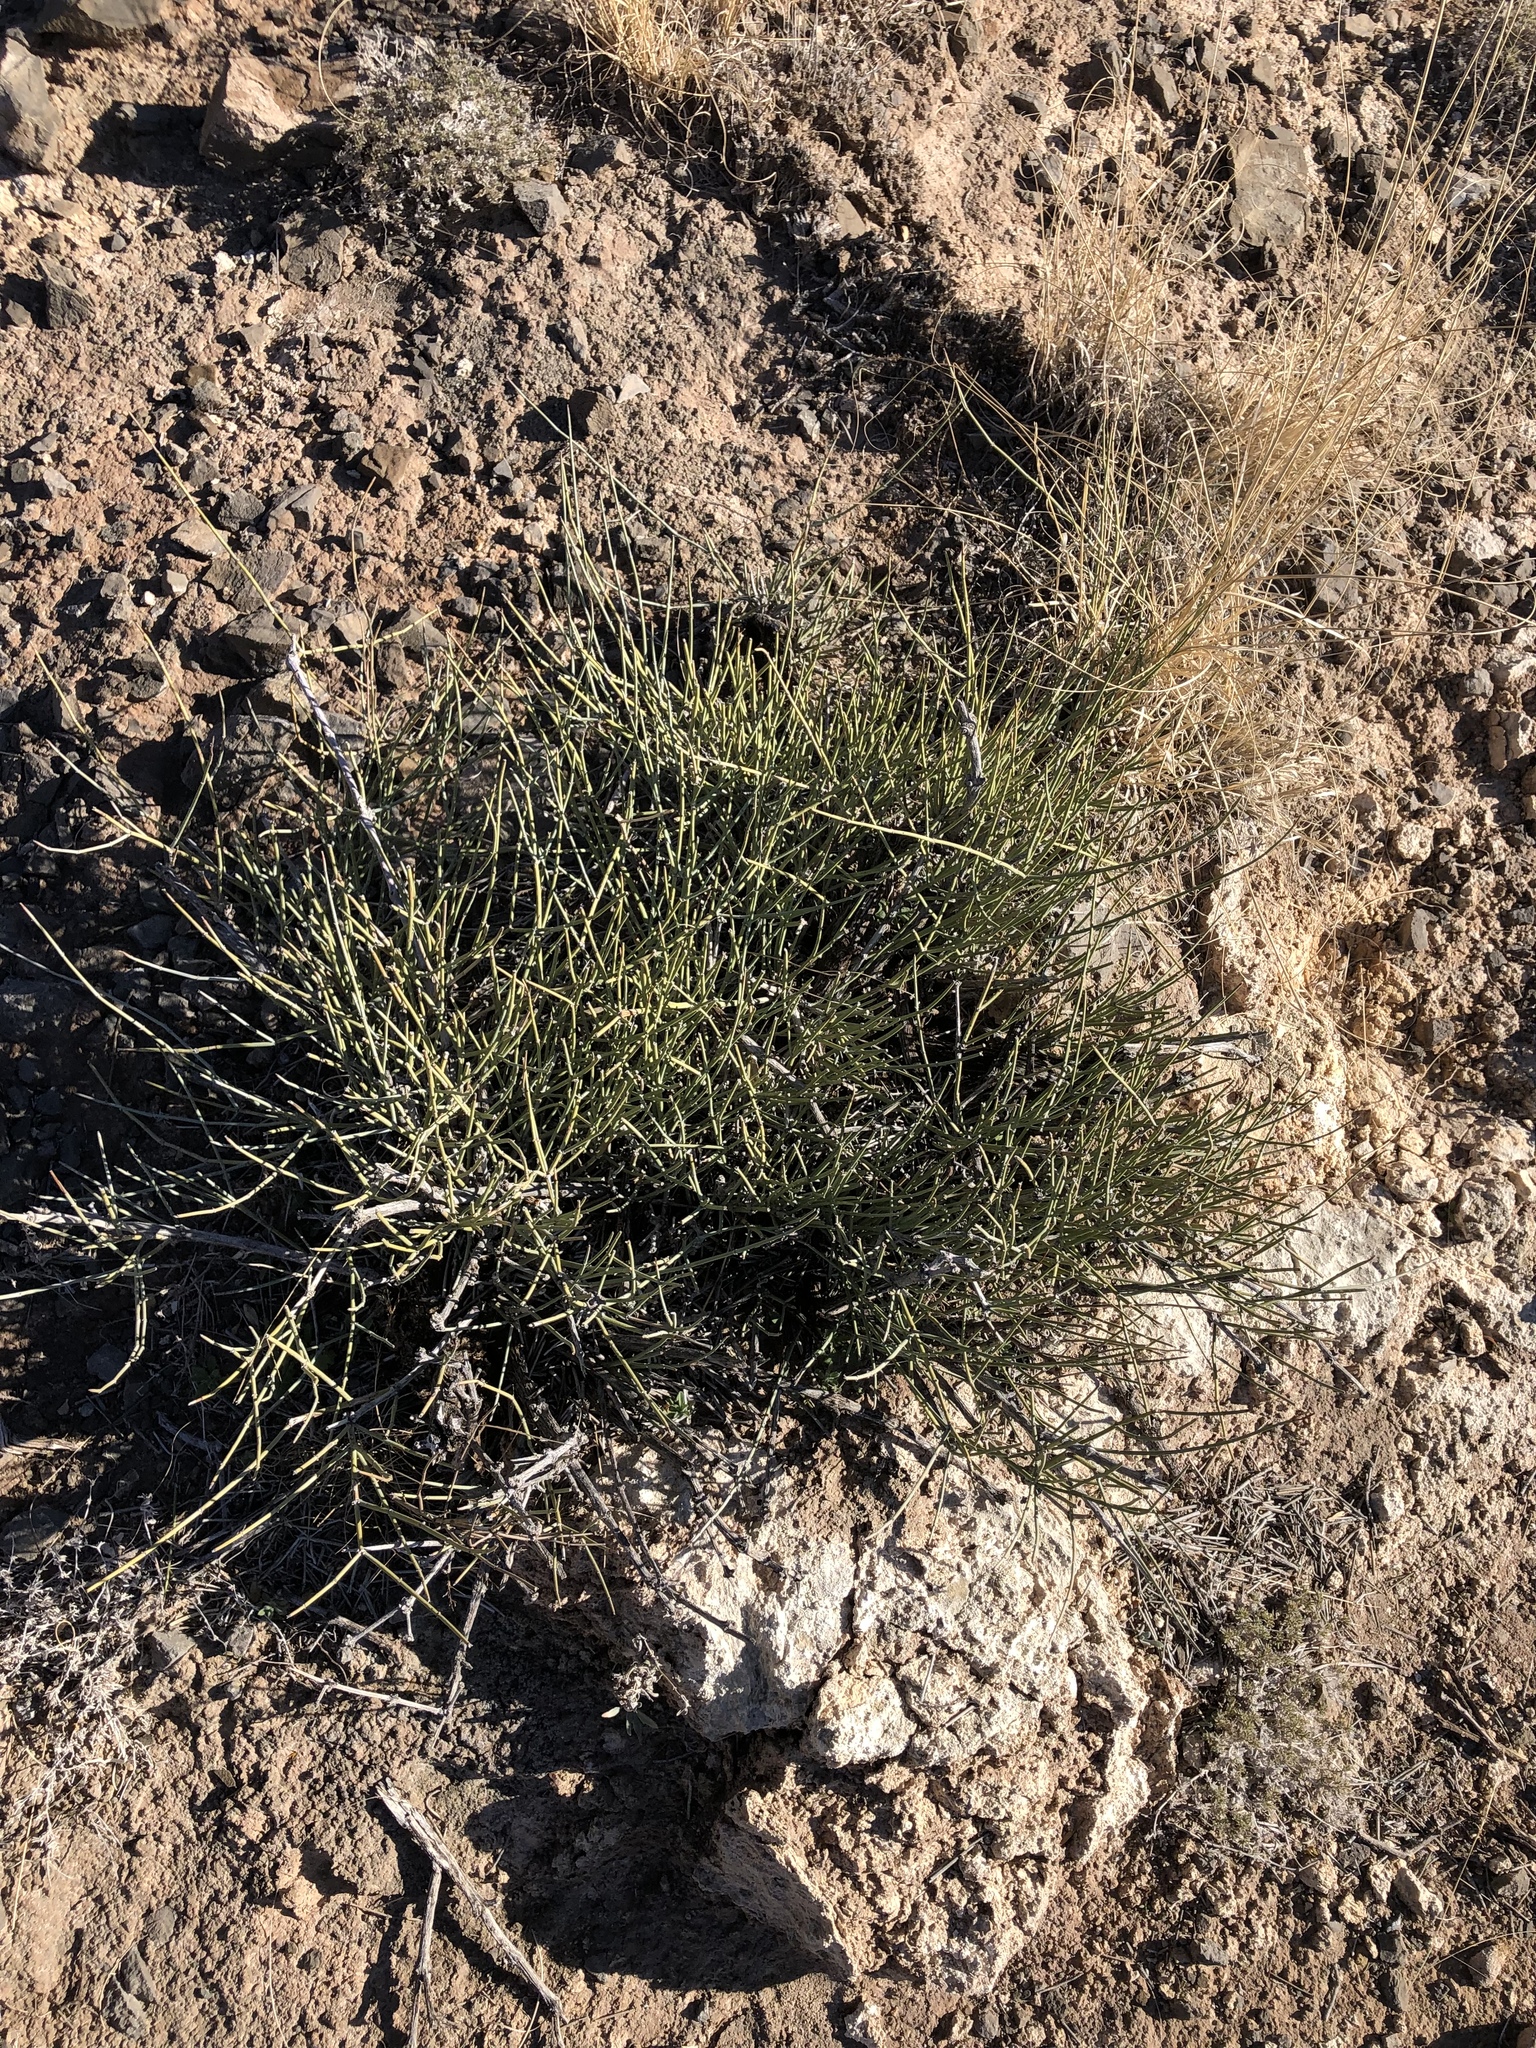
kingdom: Plantae
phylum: Tracheophyta
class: Gnetopsida
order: Ephedrales
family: Ephedraceae
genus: Ephedra
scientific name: Ephedra trifurca
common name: Mexican-tea
